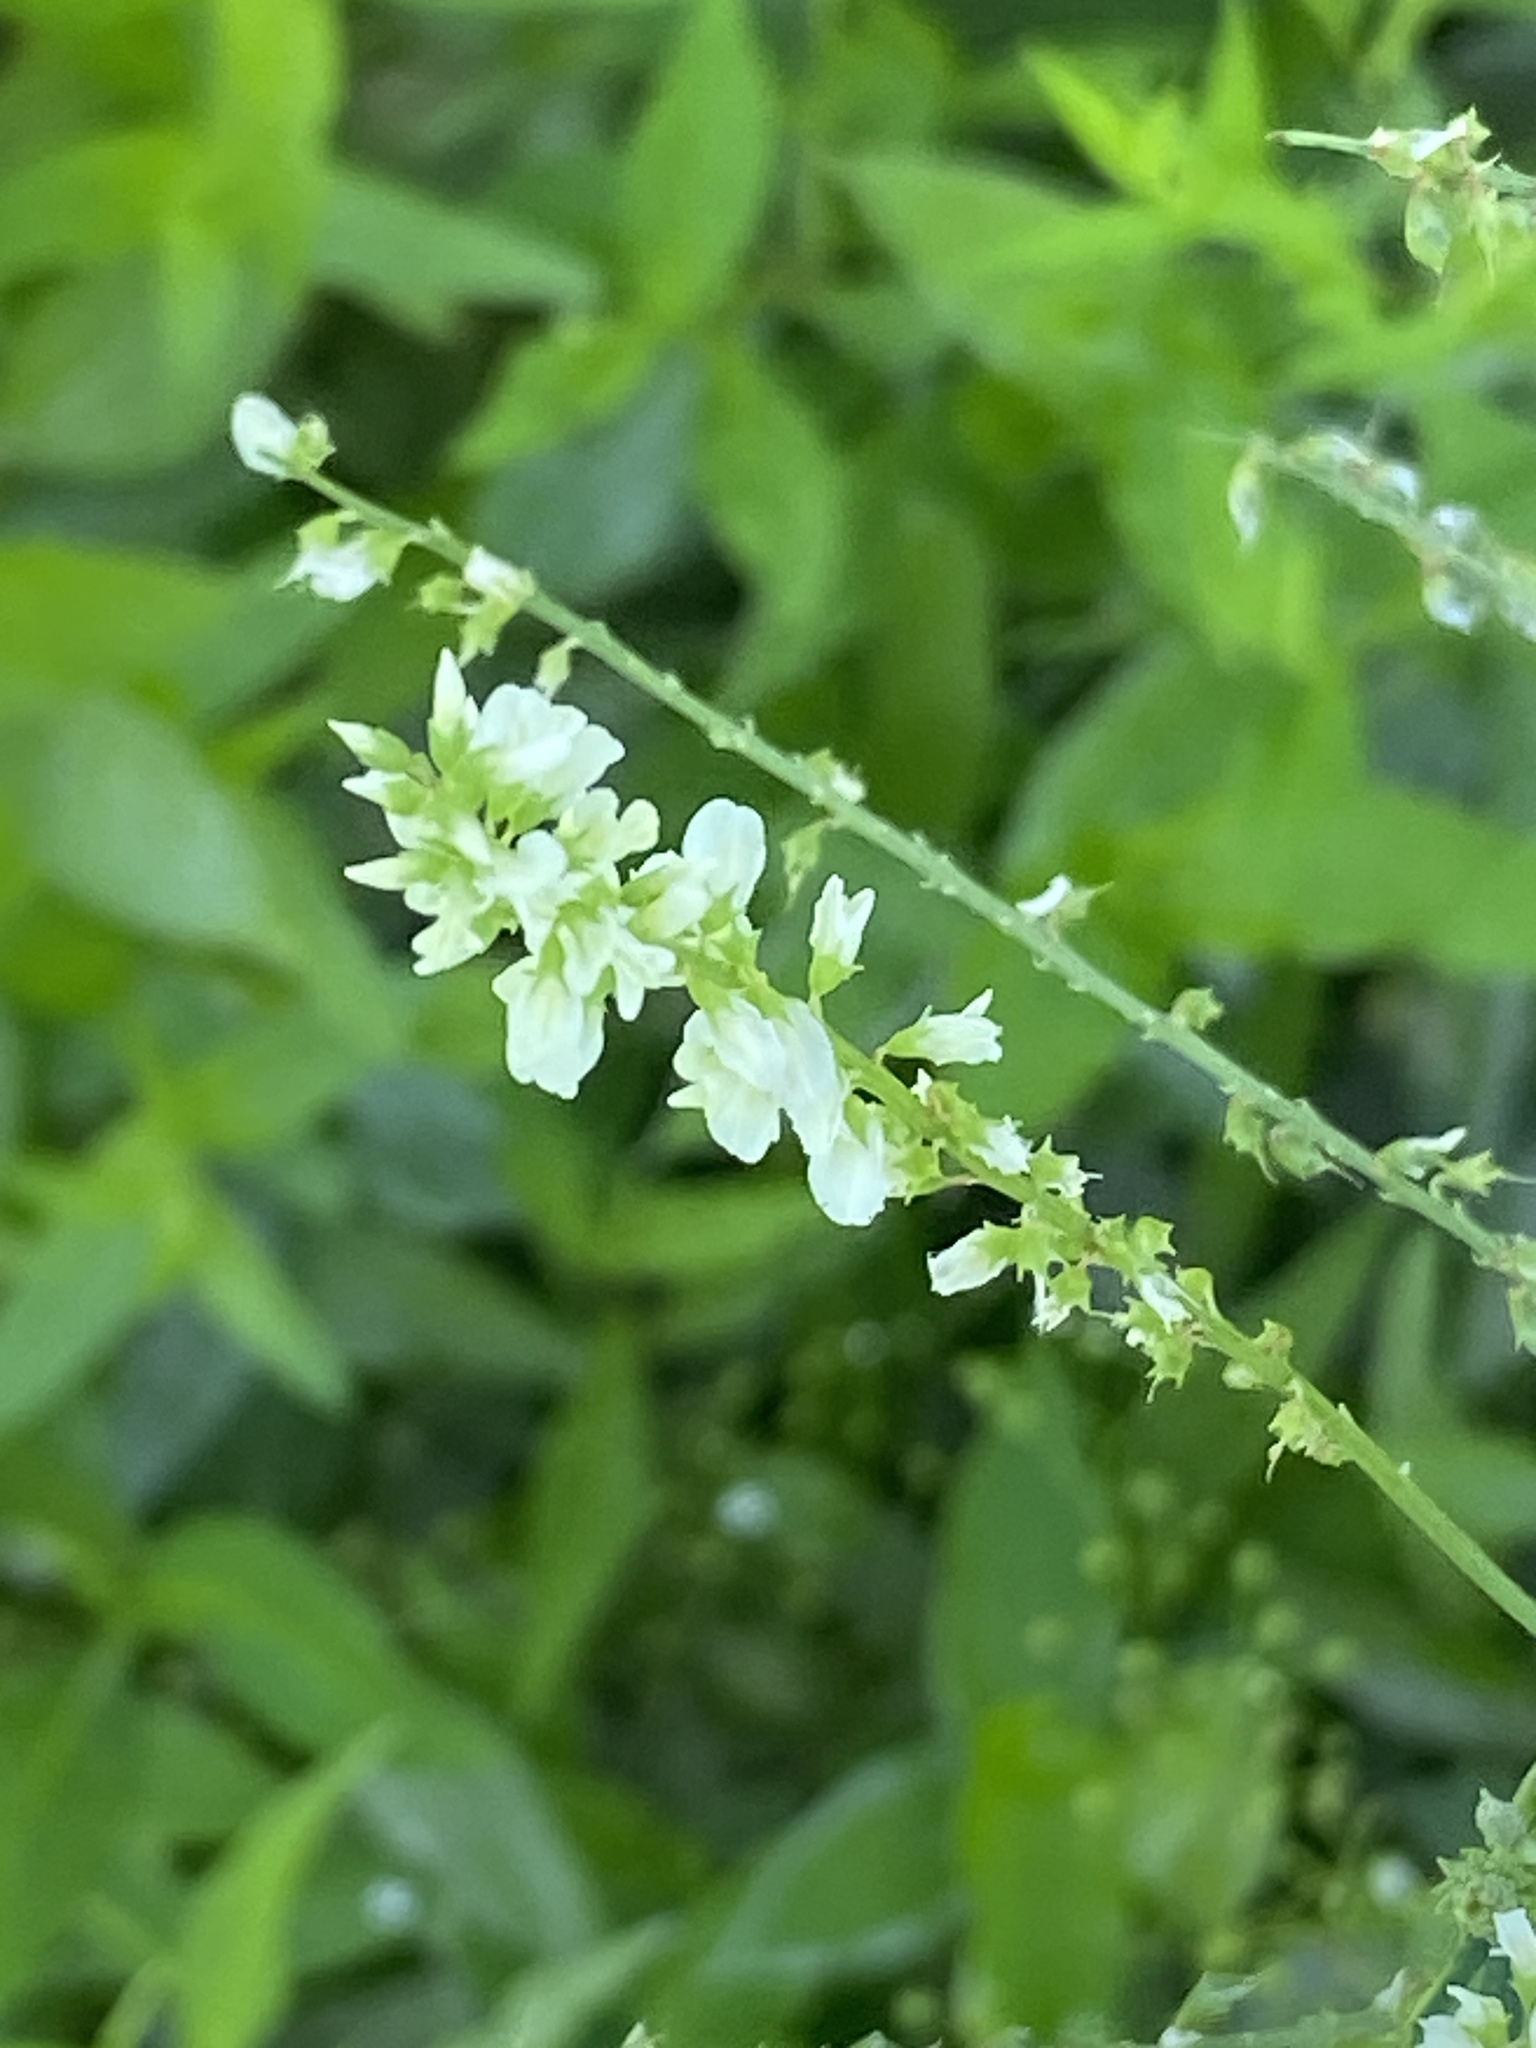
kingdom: Plantae
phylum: Tracheophyta
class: Magnoliopsida
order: Fabales
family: Fabaceae
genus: Melilotus
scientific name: Melilotus albus
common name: White melilot
